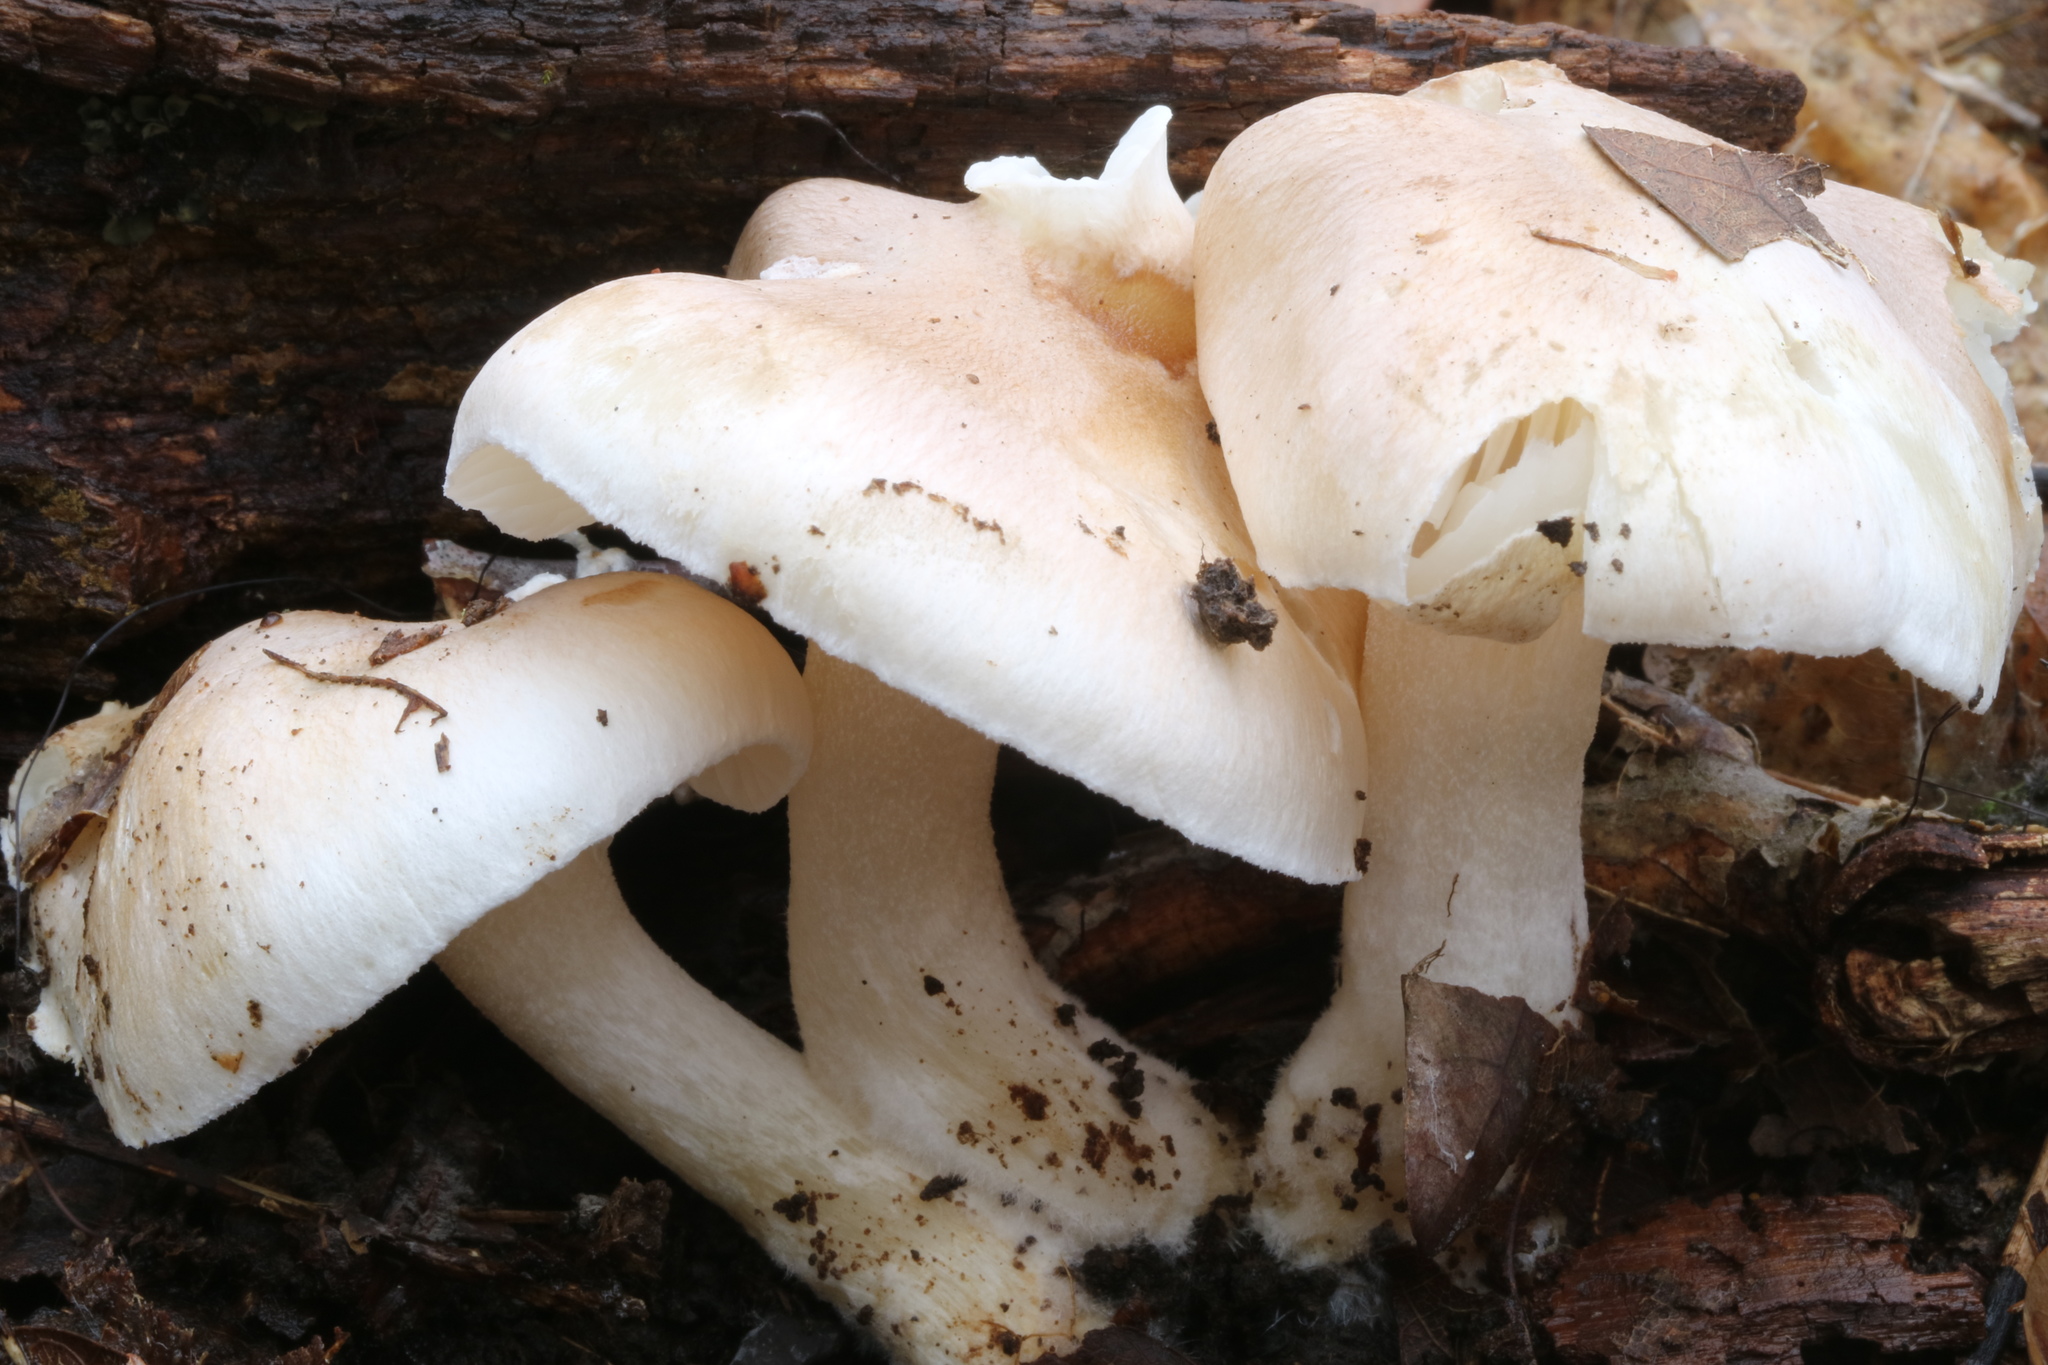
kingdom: Fungi
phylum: Basidiomycota
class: Agaricomycetes
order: Agaricales
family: Hygrophoraceae
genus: Hygrophorus
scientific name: Hygrophorus roseobrunneus
